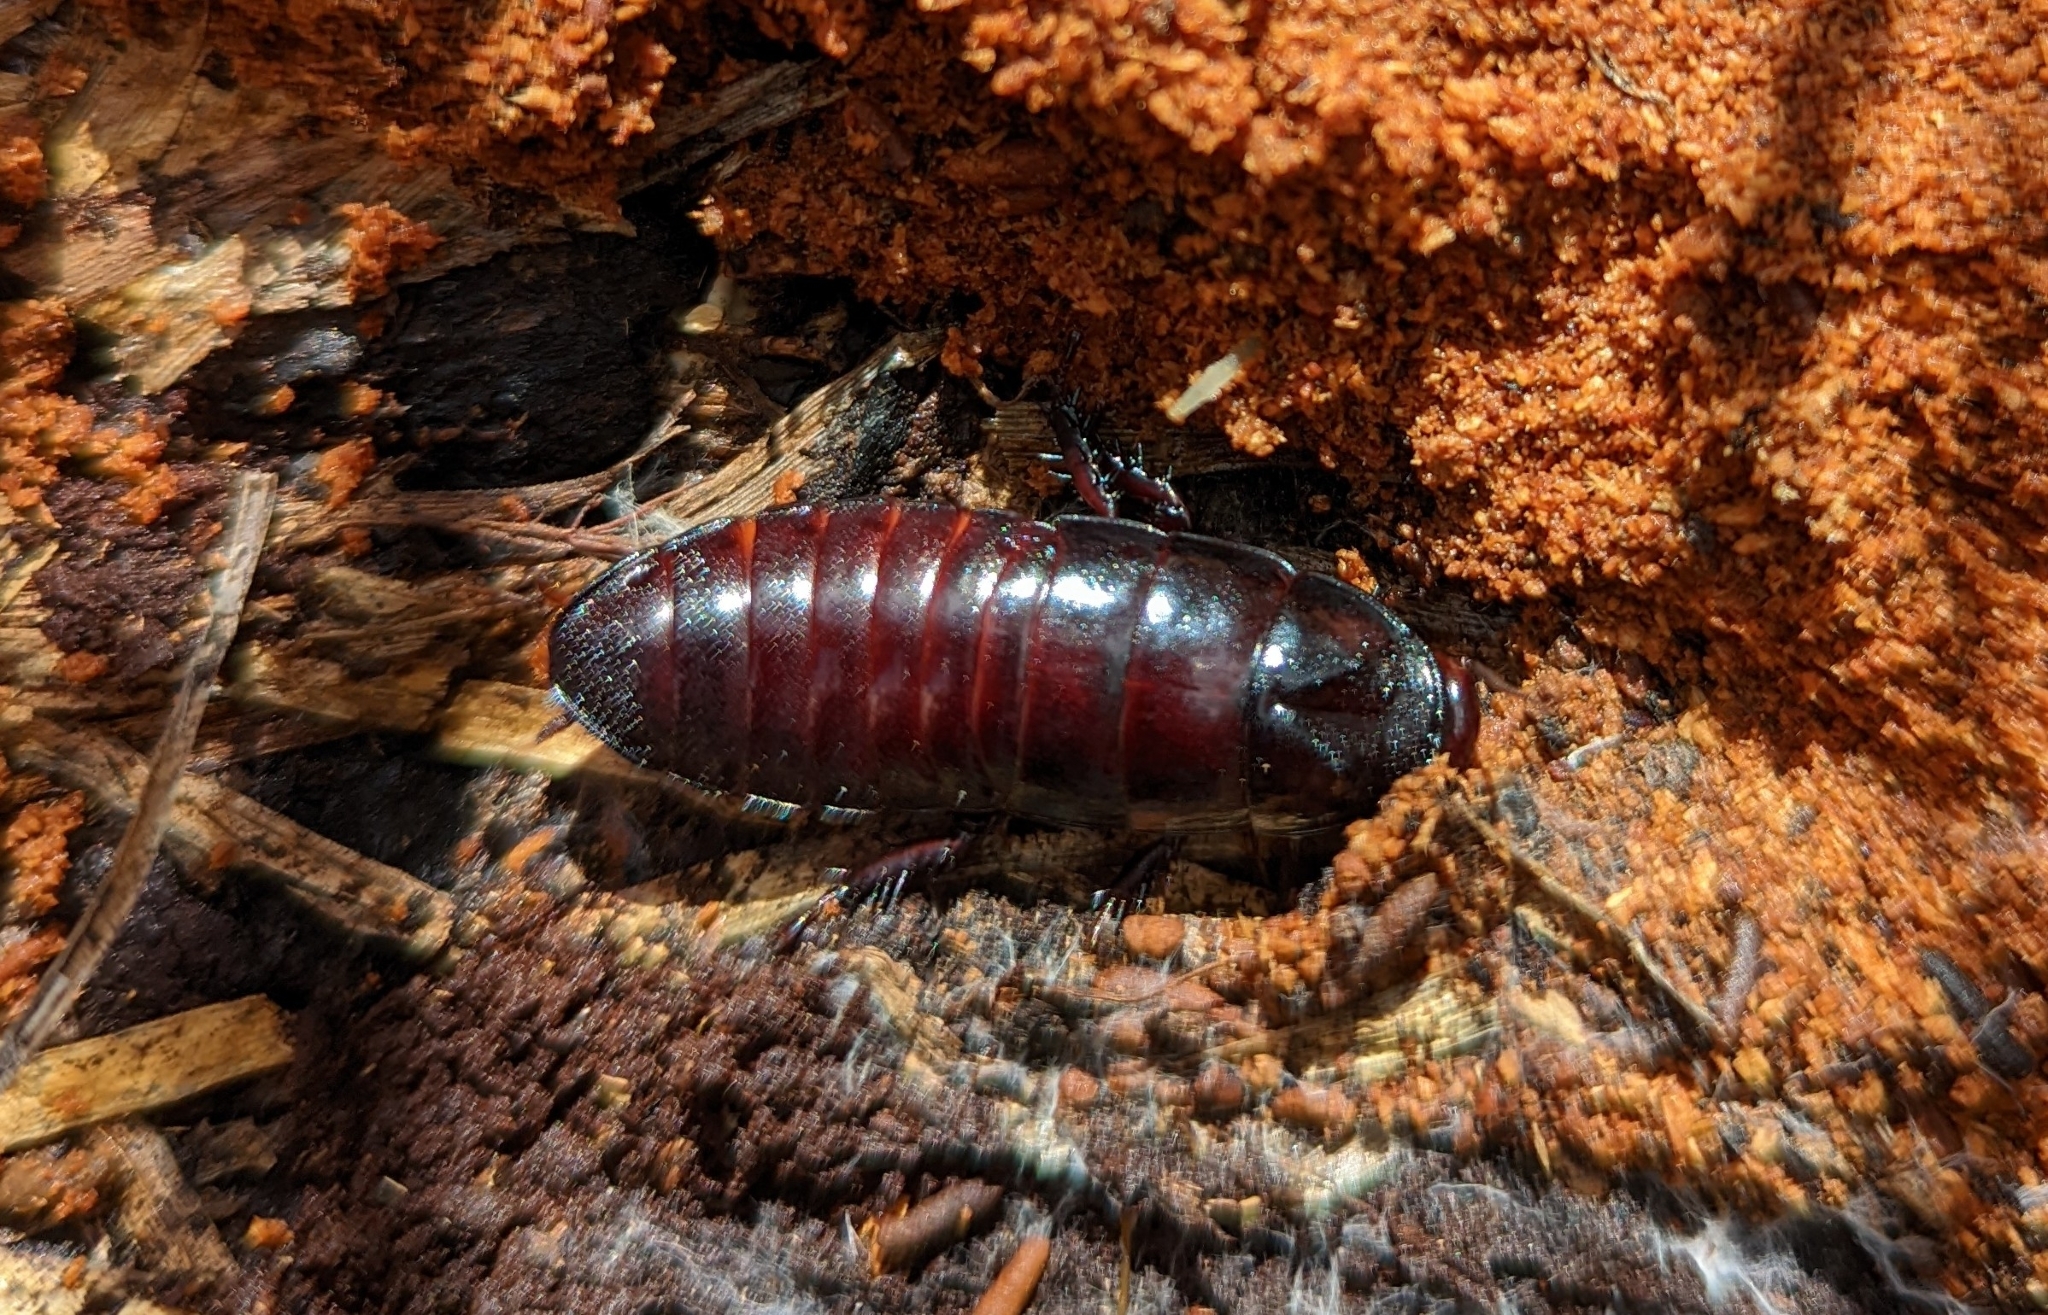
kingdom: Animalia
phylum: Arthropoda
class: Insecta
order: Blattodea
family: Cryptocercidae
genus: Cryptocercus
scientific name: Cryptocercus clevelandi
